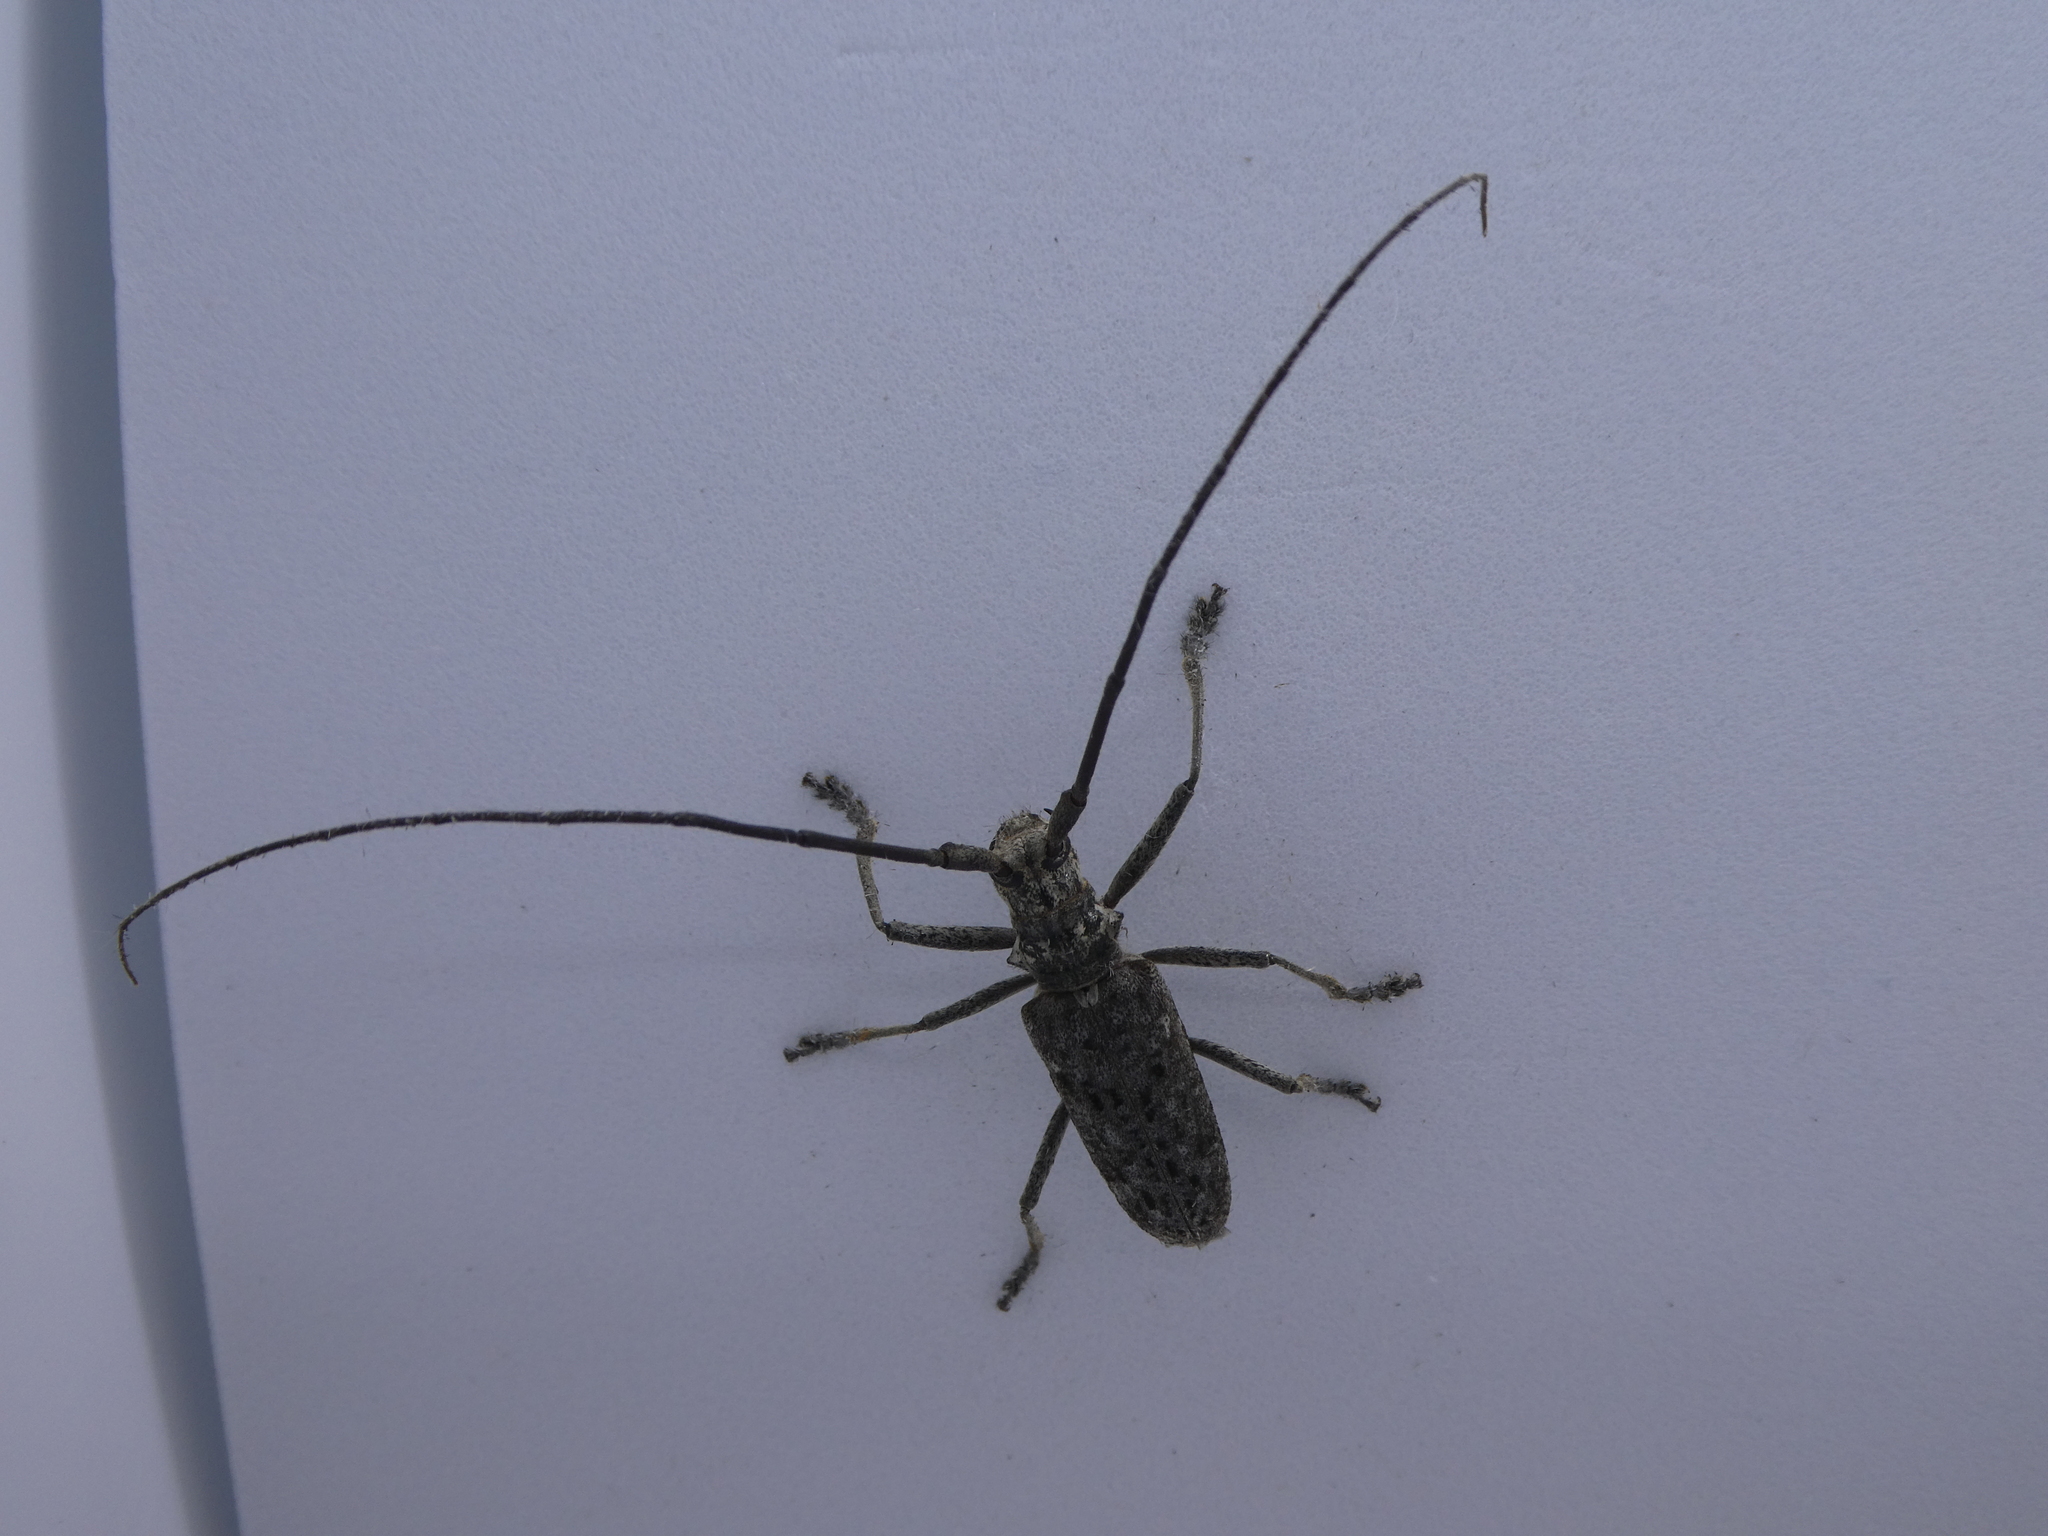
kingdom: Animalia
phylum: Arthropoda
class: Insecta
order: Coleoptera
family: Cerambycidae
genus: Monochamus
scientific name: Monochamus notatus
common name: Northeastern pine sawyer beetle
